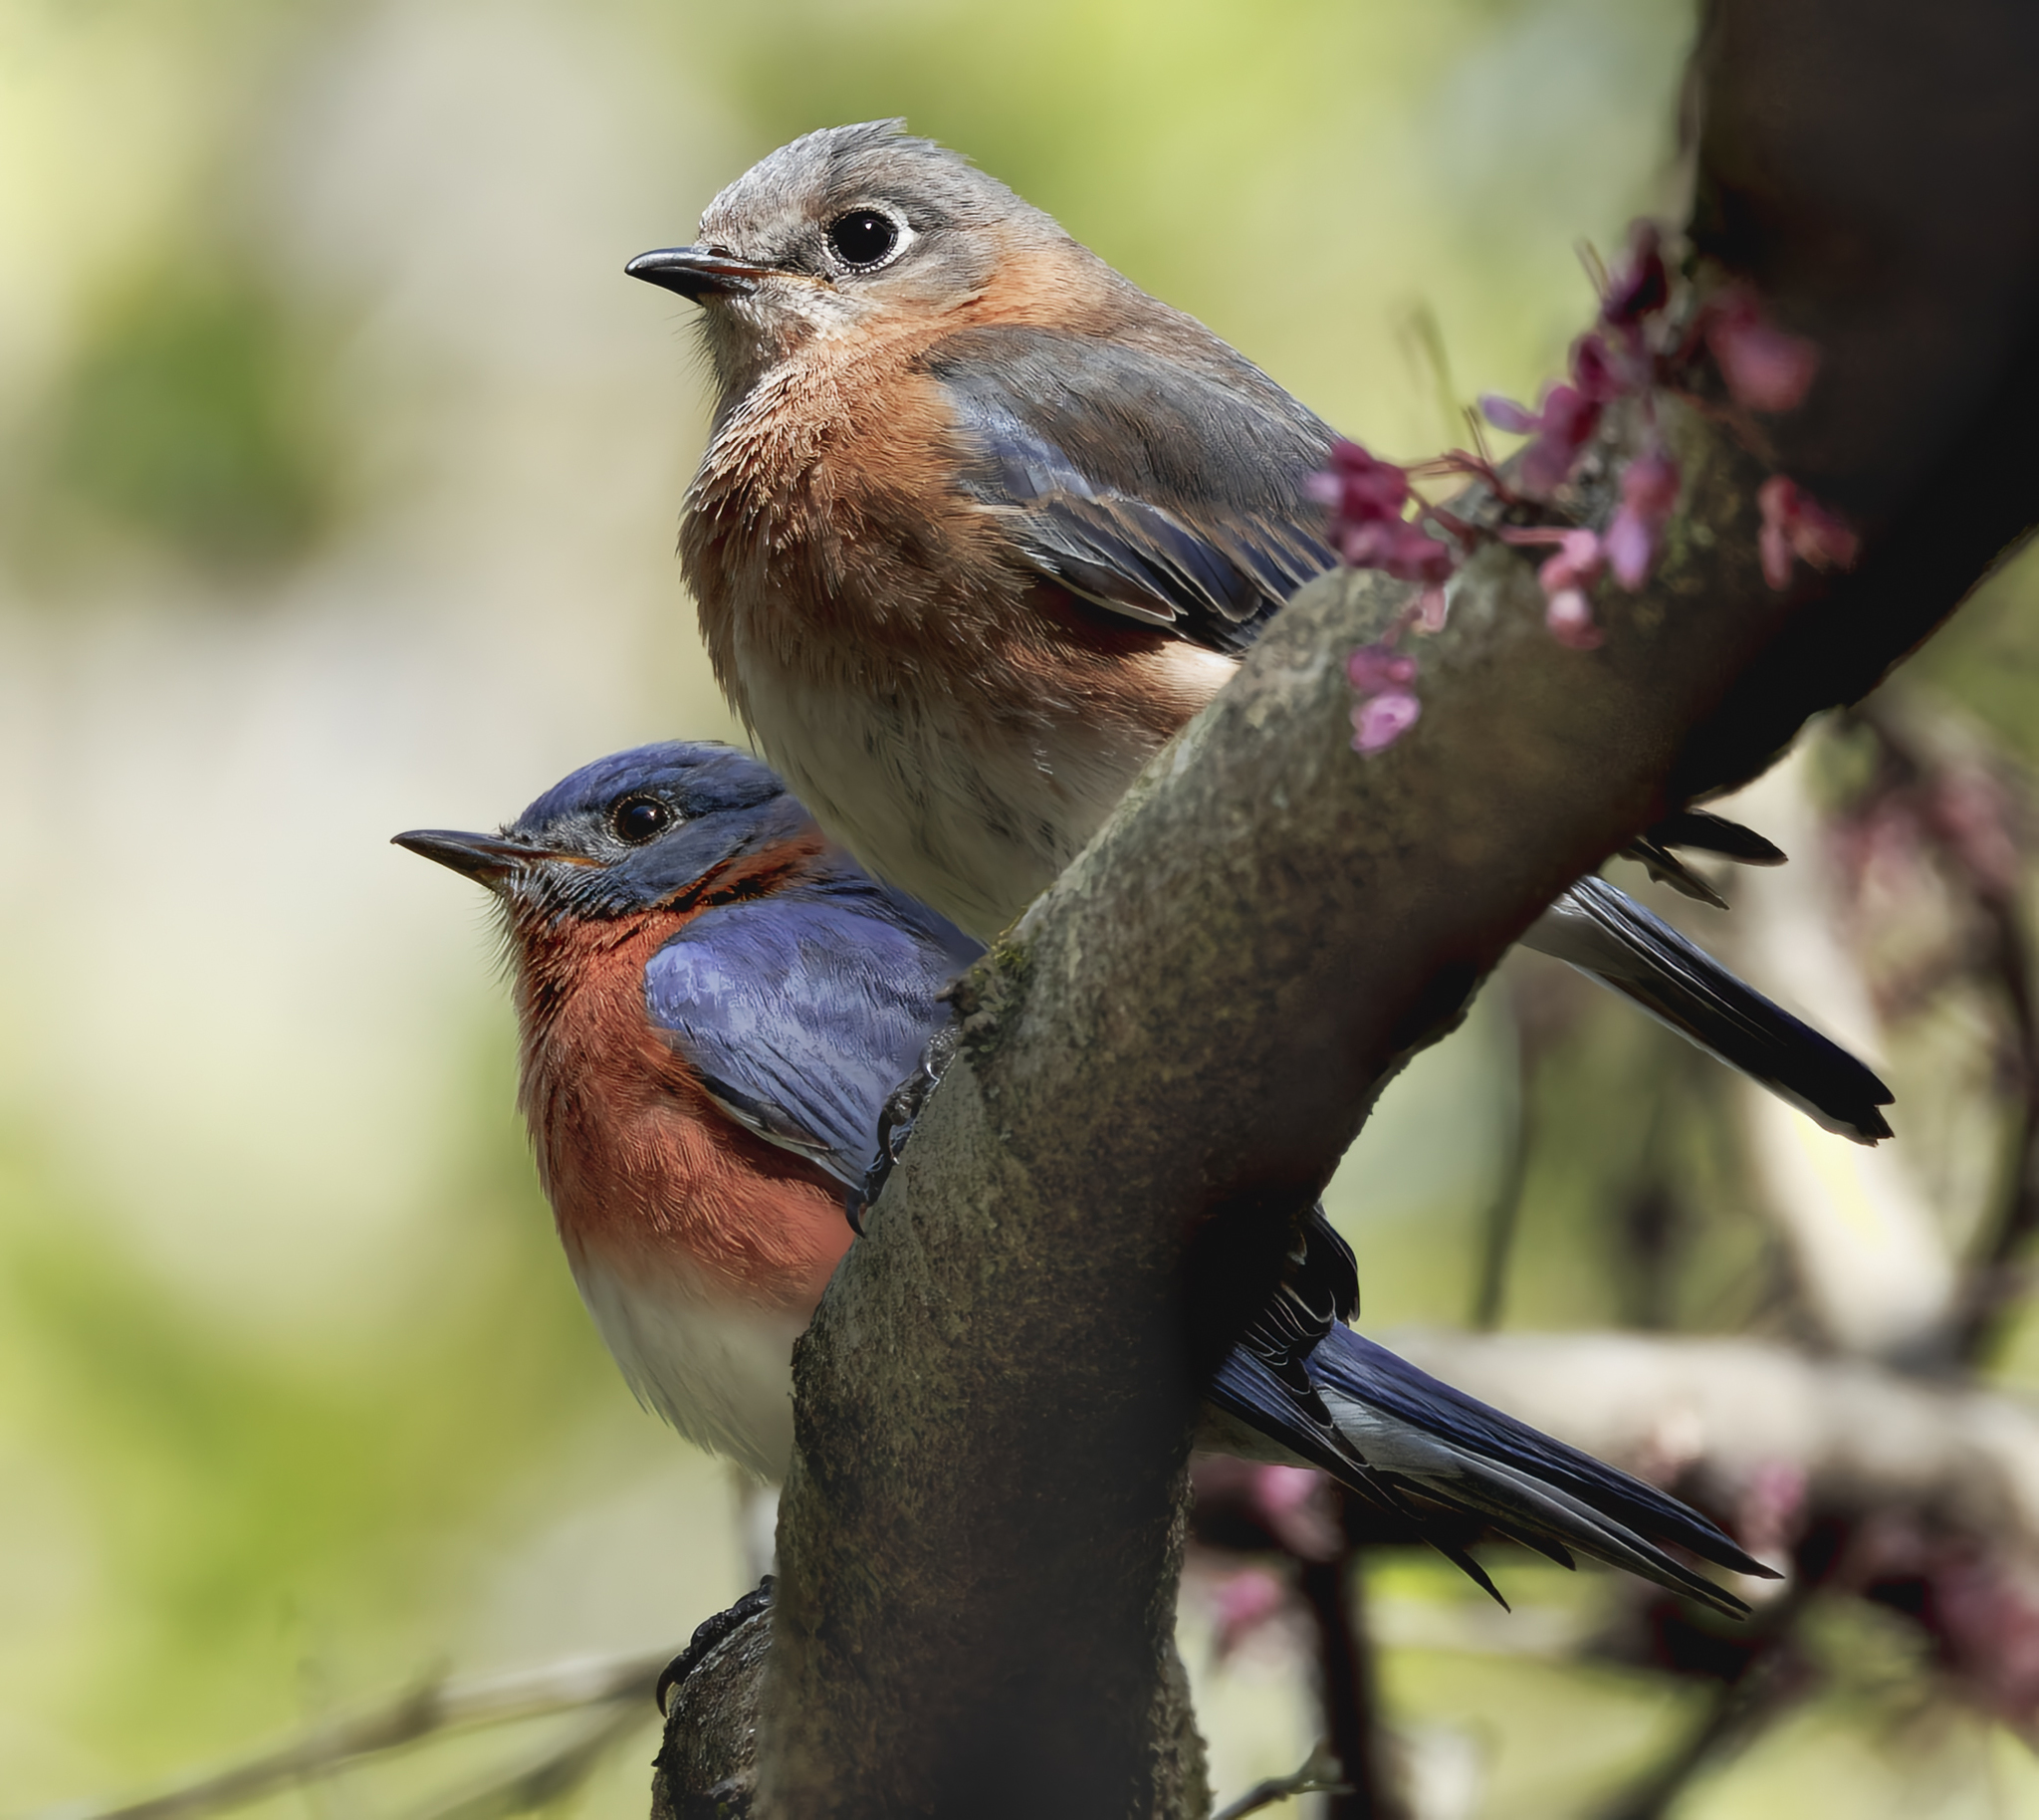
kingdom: Animalia
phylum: Chordata
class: Aves
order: Passeriformes
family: Turdidae
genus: Sialia
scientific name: Sialia sialis
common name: Eastern bluebird
